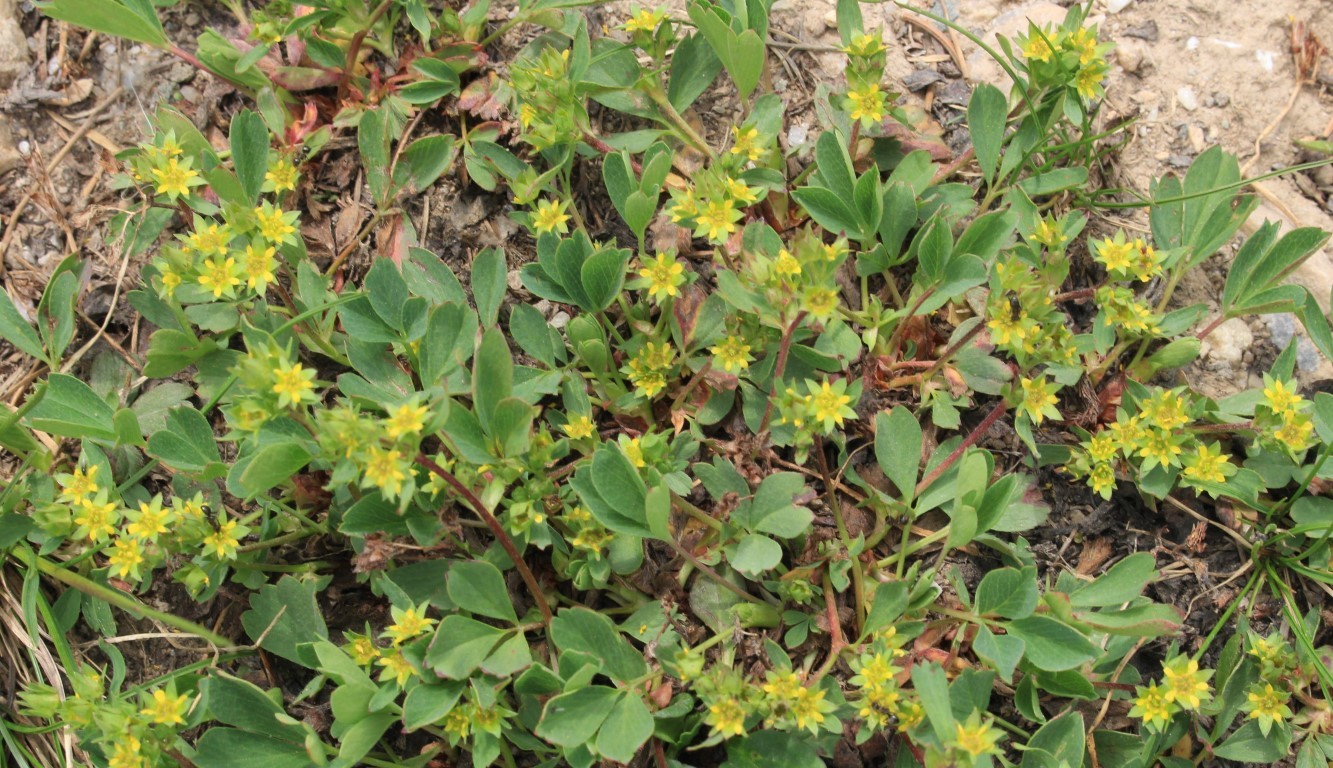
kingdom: Plantae
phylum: Tracheophyta
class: Magnoliopsida
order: Rosales
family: Rosaceae
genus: Sibbaldia
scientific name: Sibbaldia procumbens
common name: Creeping sibbaldia
